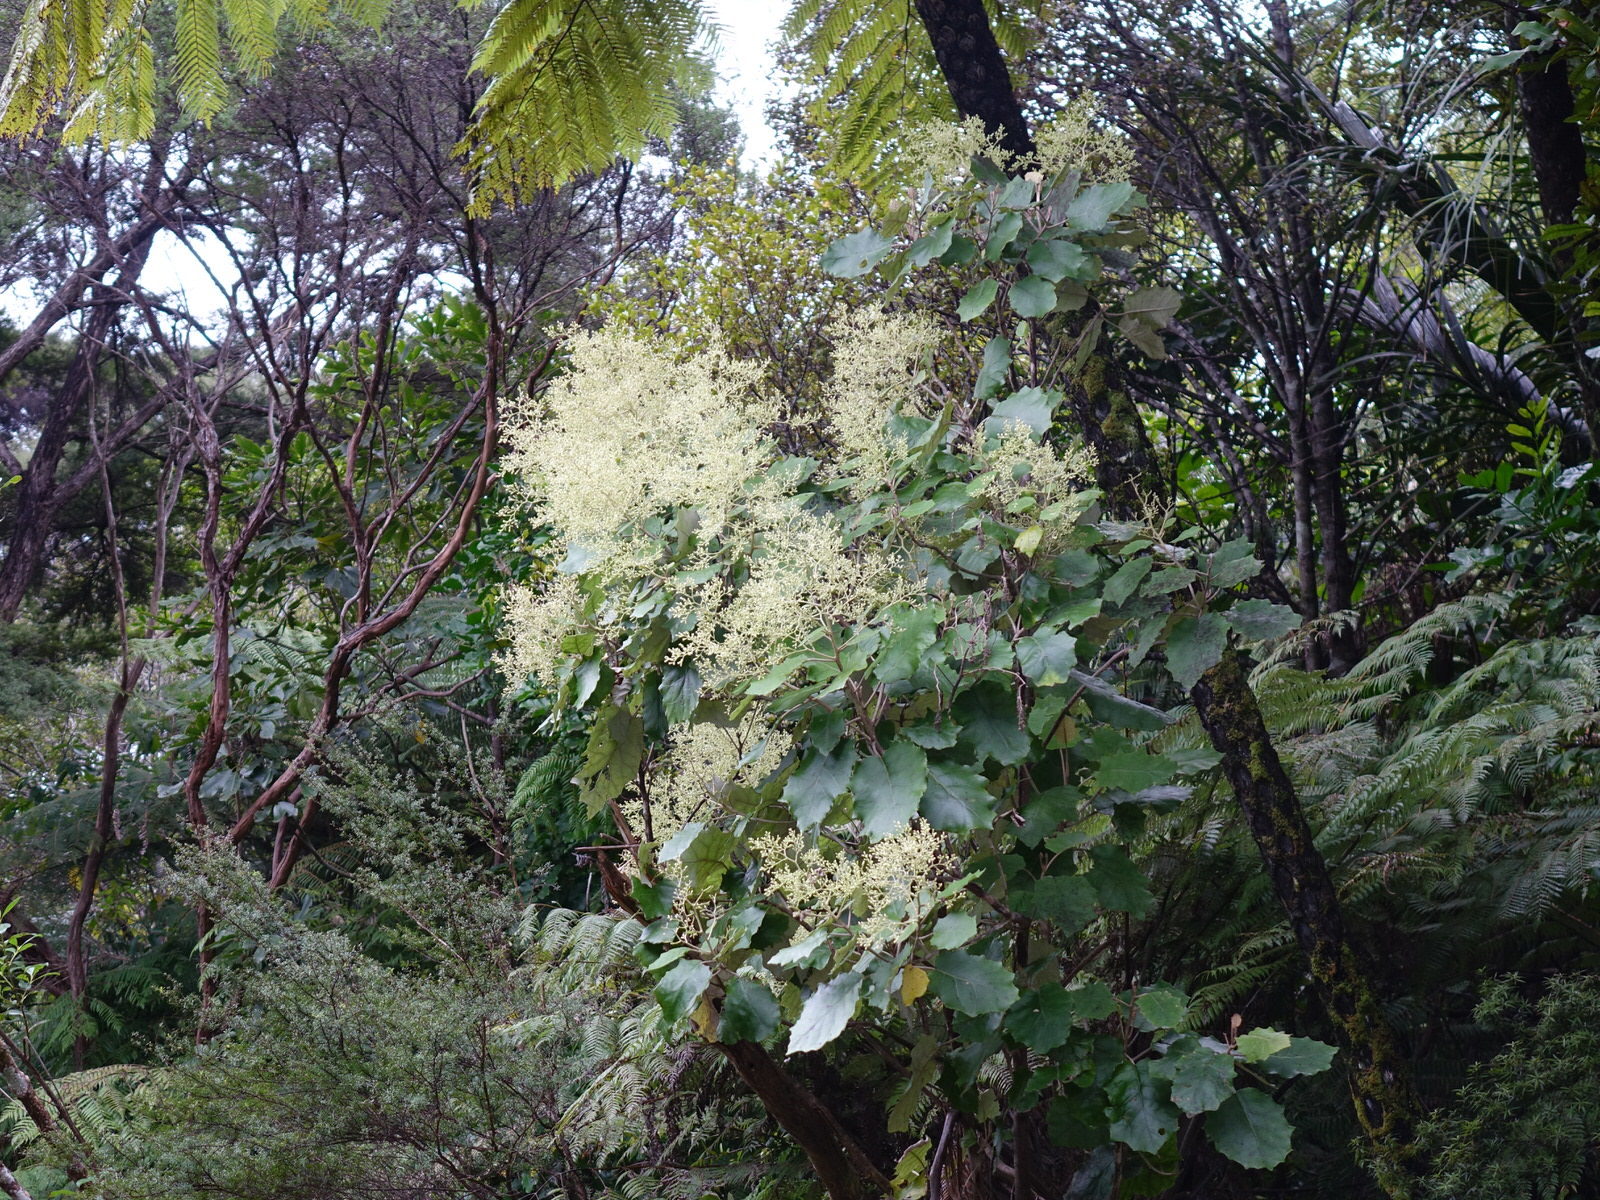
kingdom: Plantae
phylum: Tracheophyta
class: Magnoliopsida
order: Asterales
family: Asteraceae
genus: Brachyglottis
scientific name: Brachyglottis repanda
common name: Hedge ragwort
